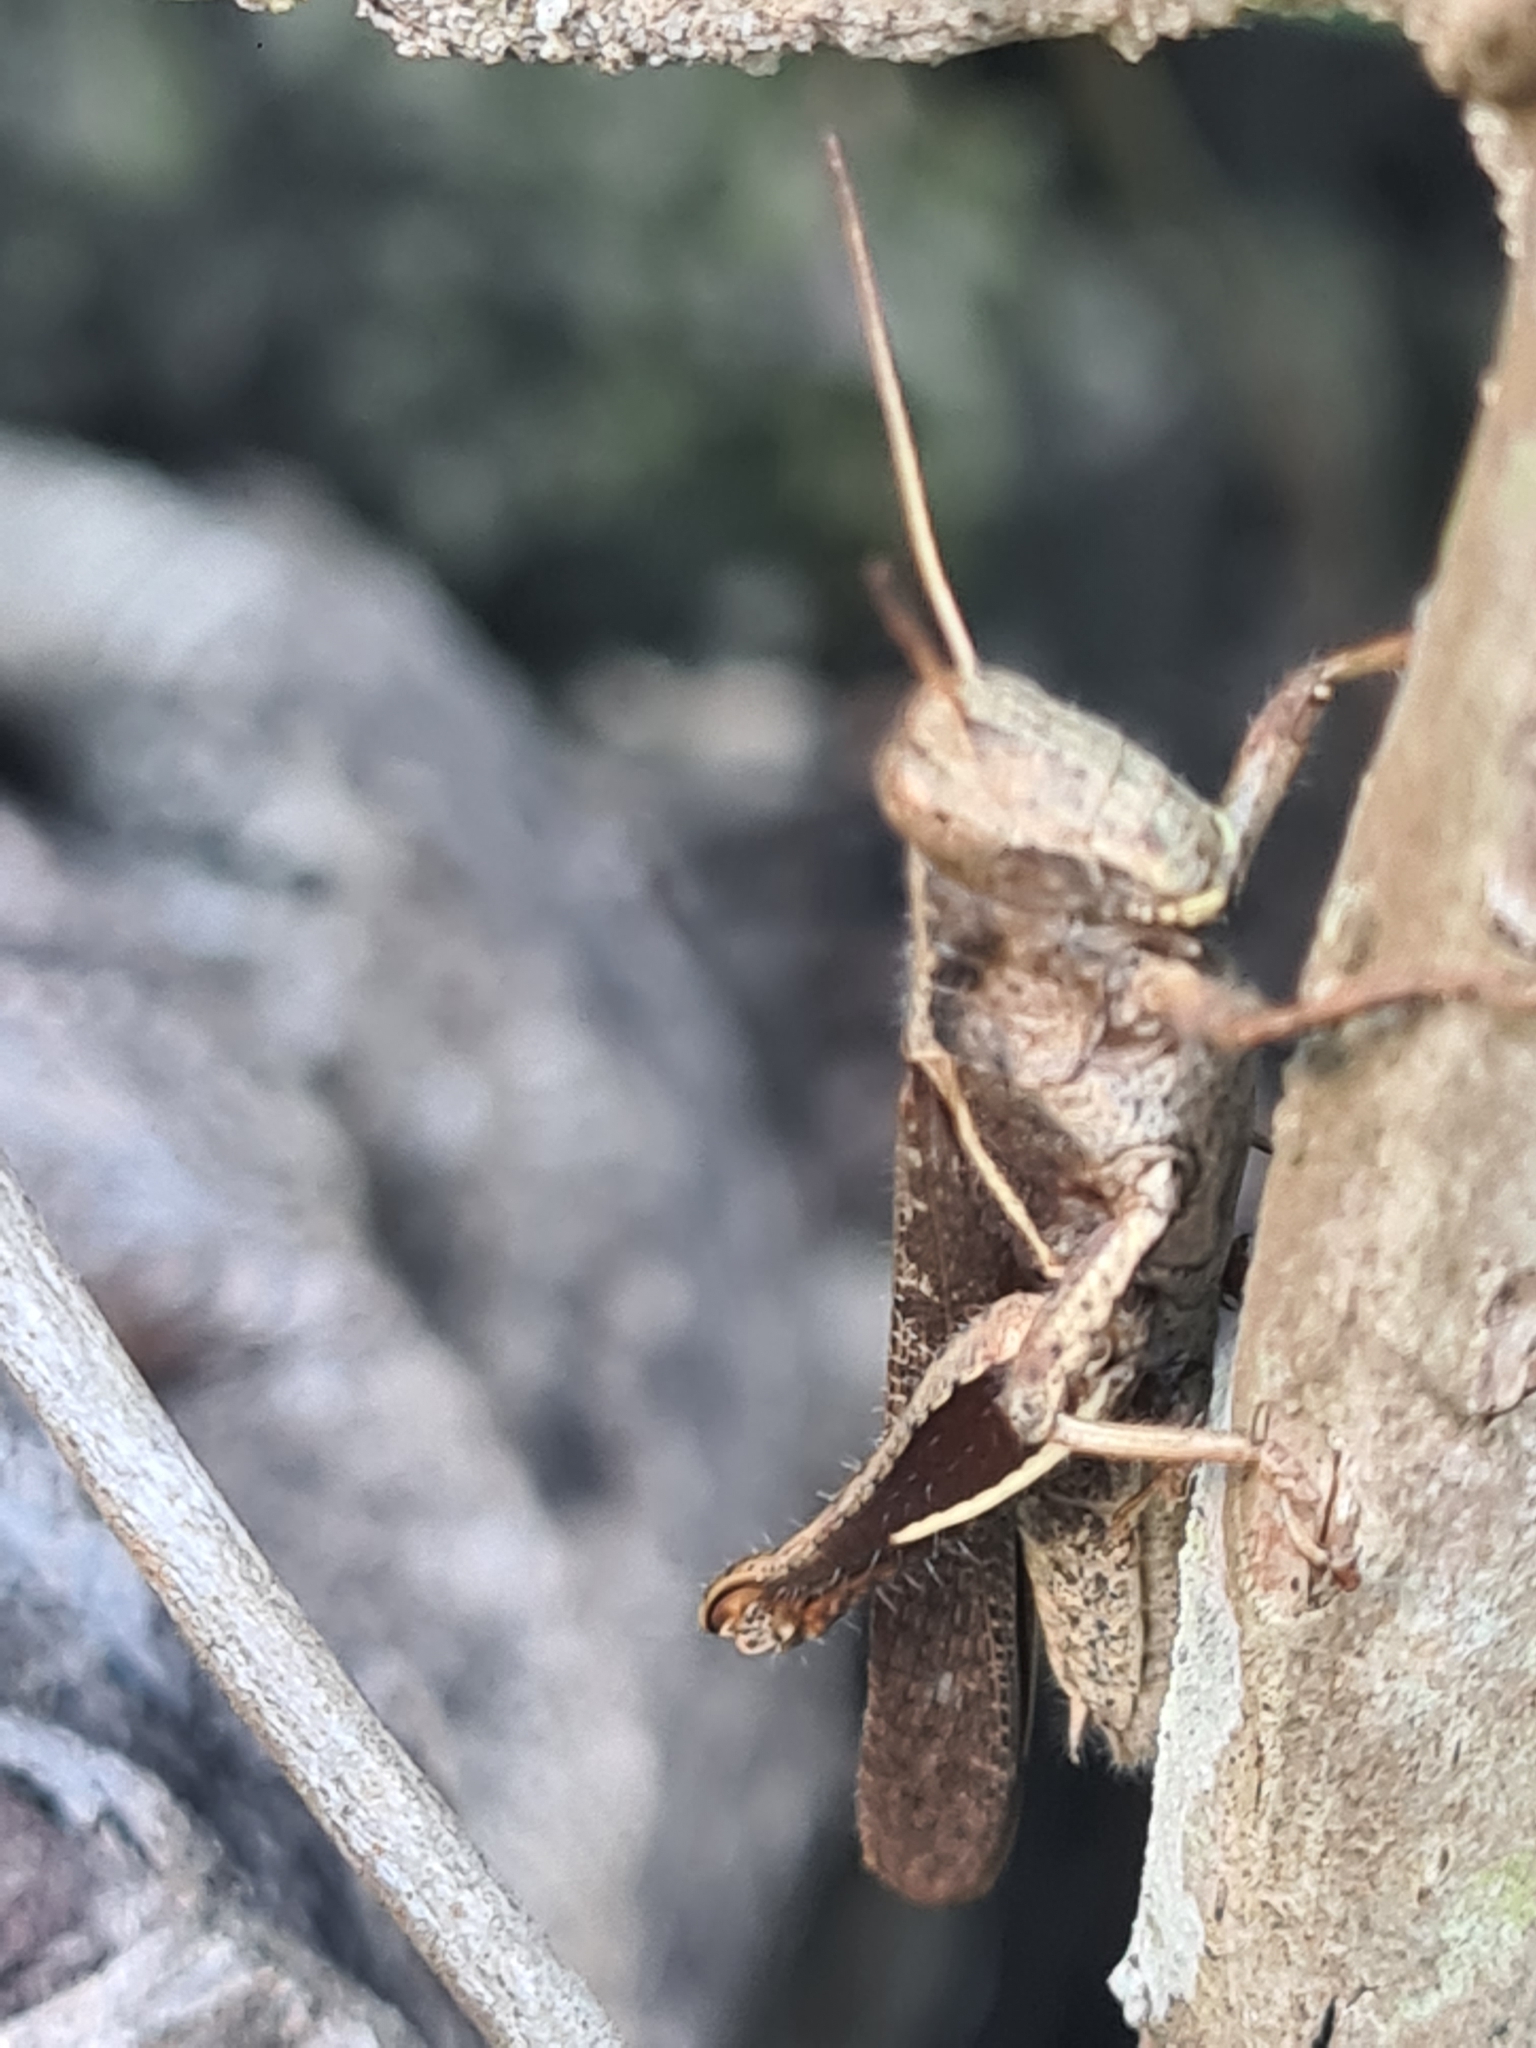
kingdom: Animalia
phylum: Arthropoda
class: Insecta
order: Orthoptera
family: Acrididae
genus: Abracris
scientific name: Abracris flavolineata
